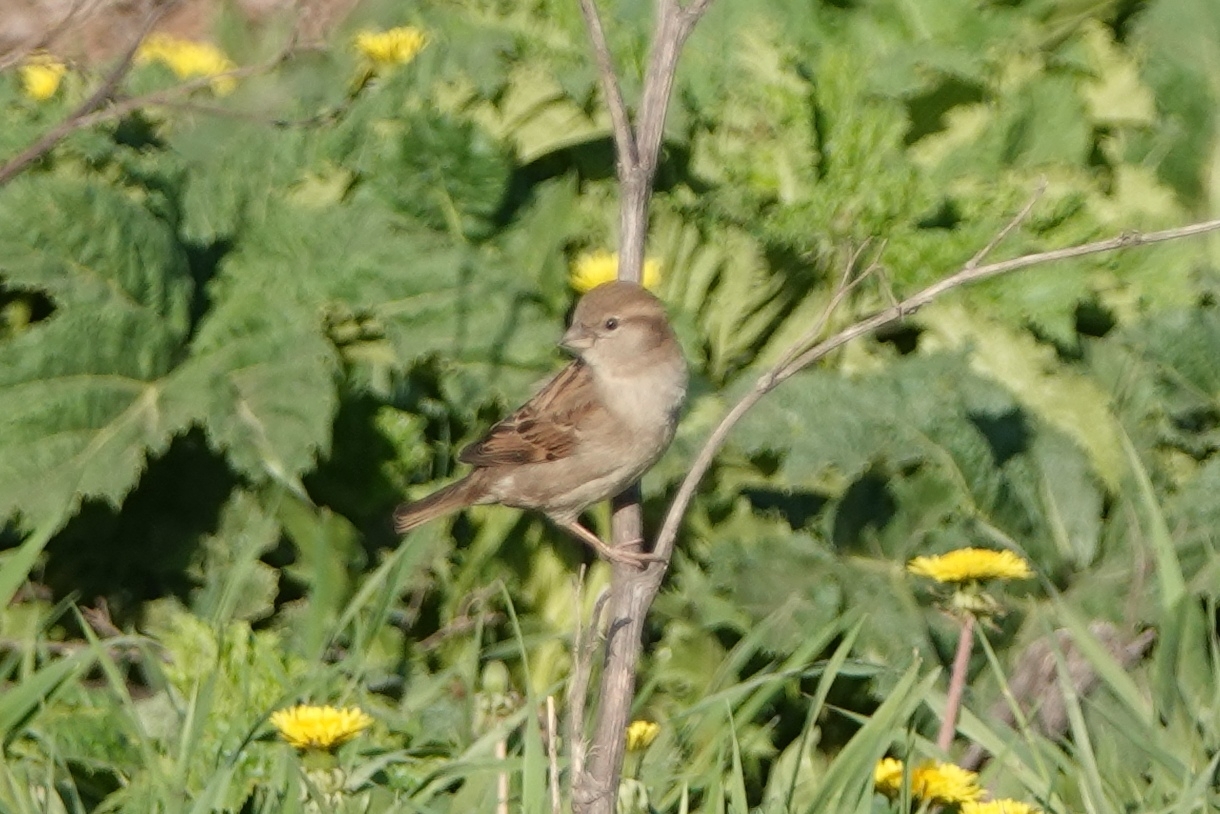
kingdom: Animalia
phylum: Chordata
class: Aves
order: Passeriformes
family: Passeridae
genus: Passer
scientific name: Passer domesticus
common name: House sparrow
